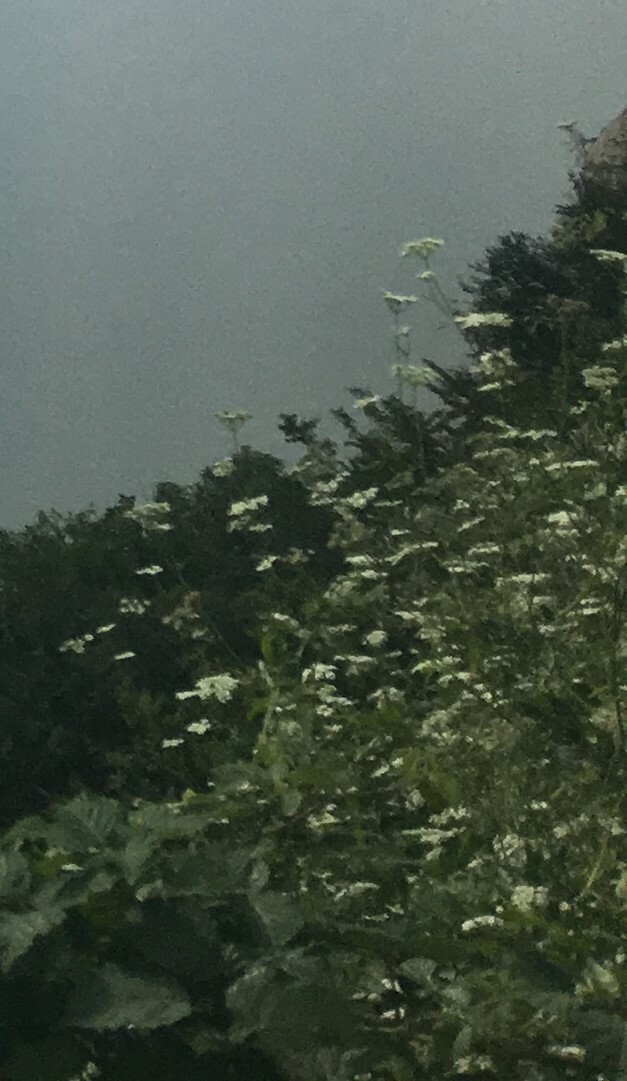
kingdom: Plantae
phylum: Tracheophyta
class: Magnoliopsida
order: Apiales
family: Apiaceae
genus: Heracleum
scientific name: Heracleum
